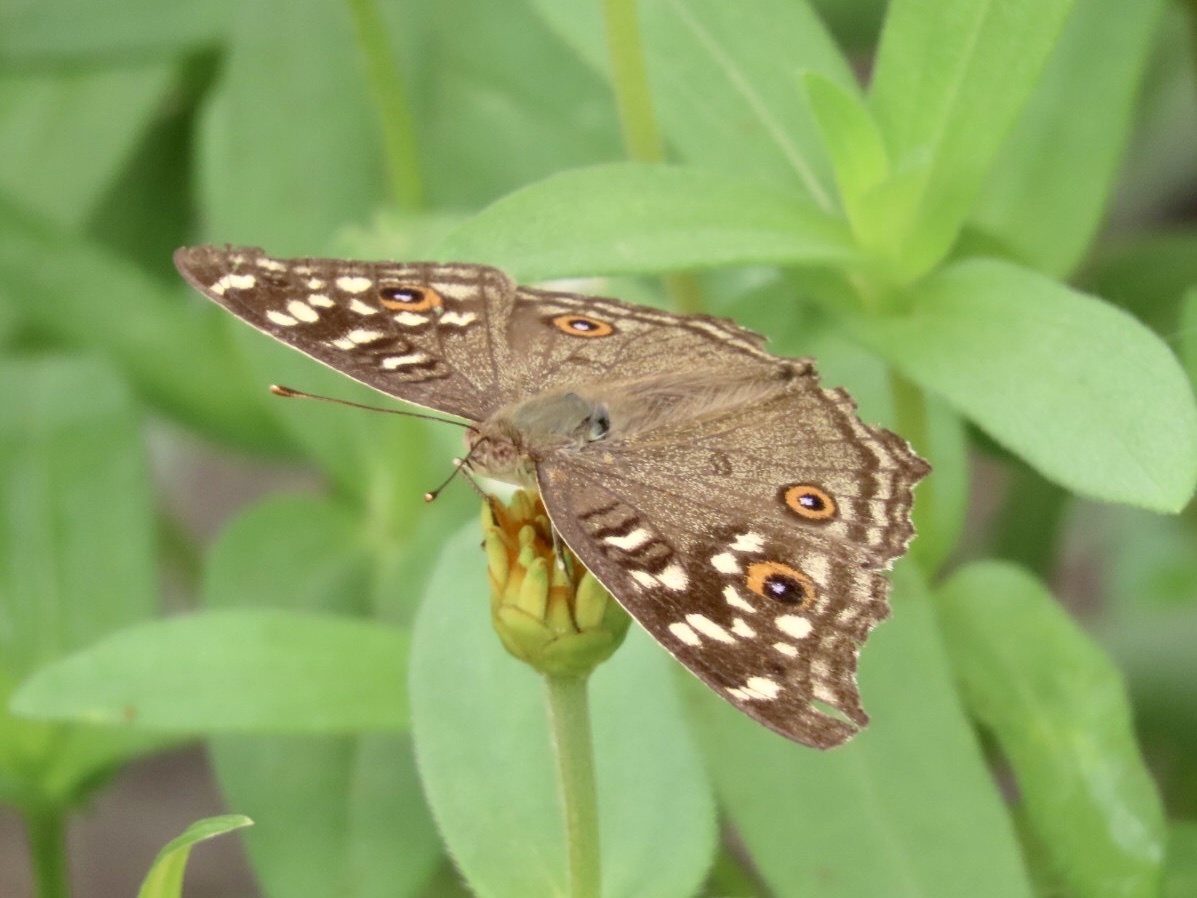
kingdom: Animalia
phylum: Arthropoda
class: Insecta
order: Lepidoptera
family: Nymphalidae
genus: Junonia
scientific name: Junonia lemonias
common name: Lemon pansy
